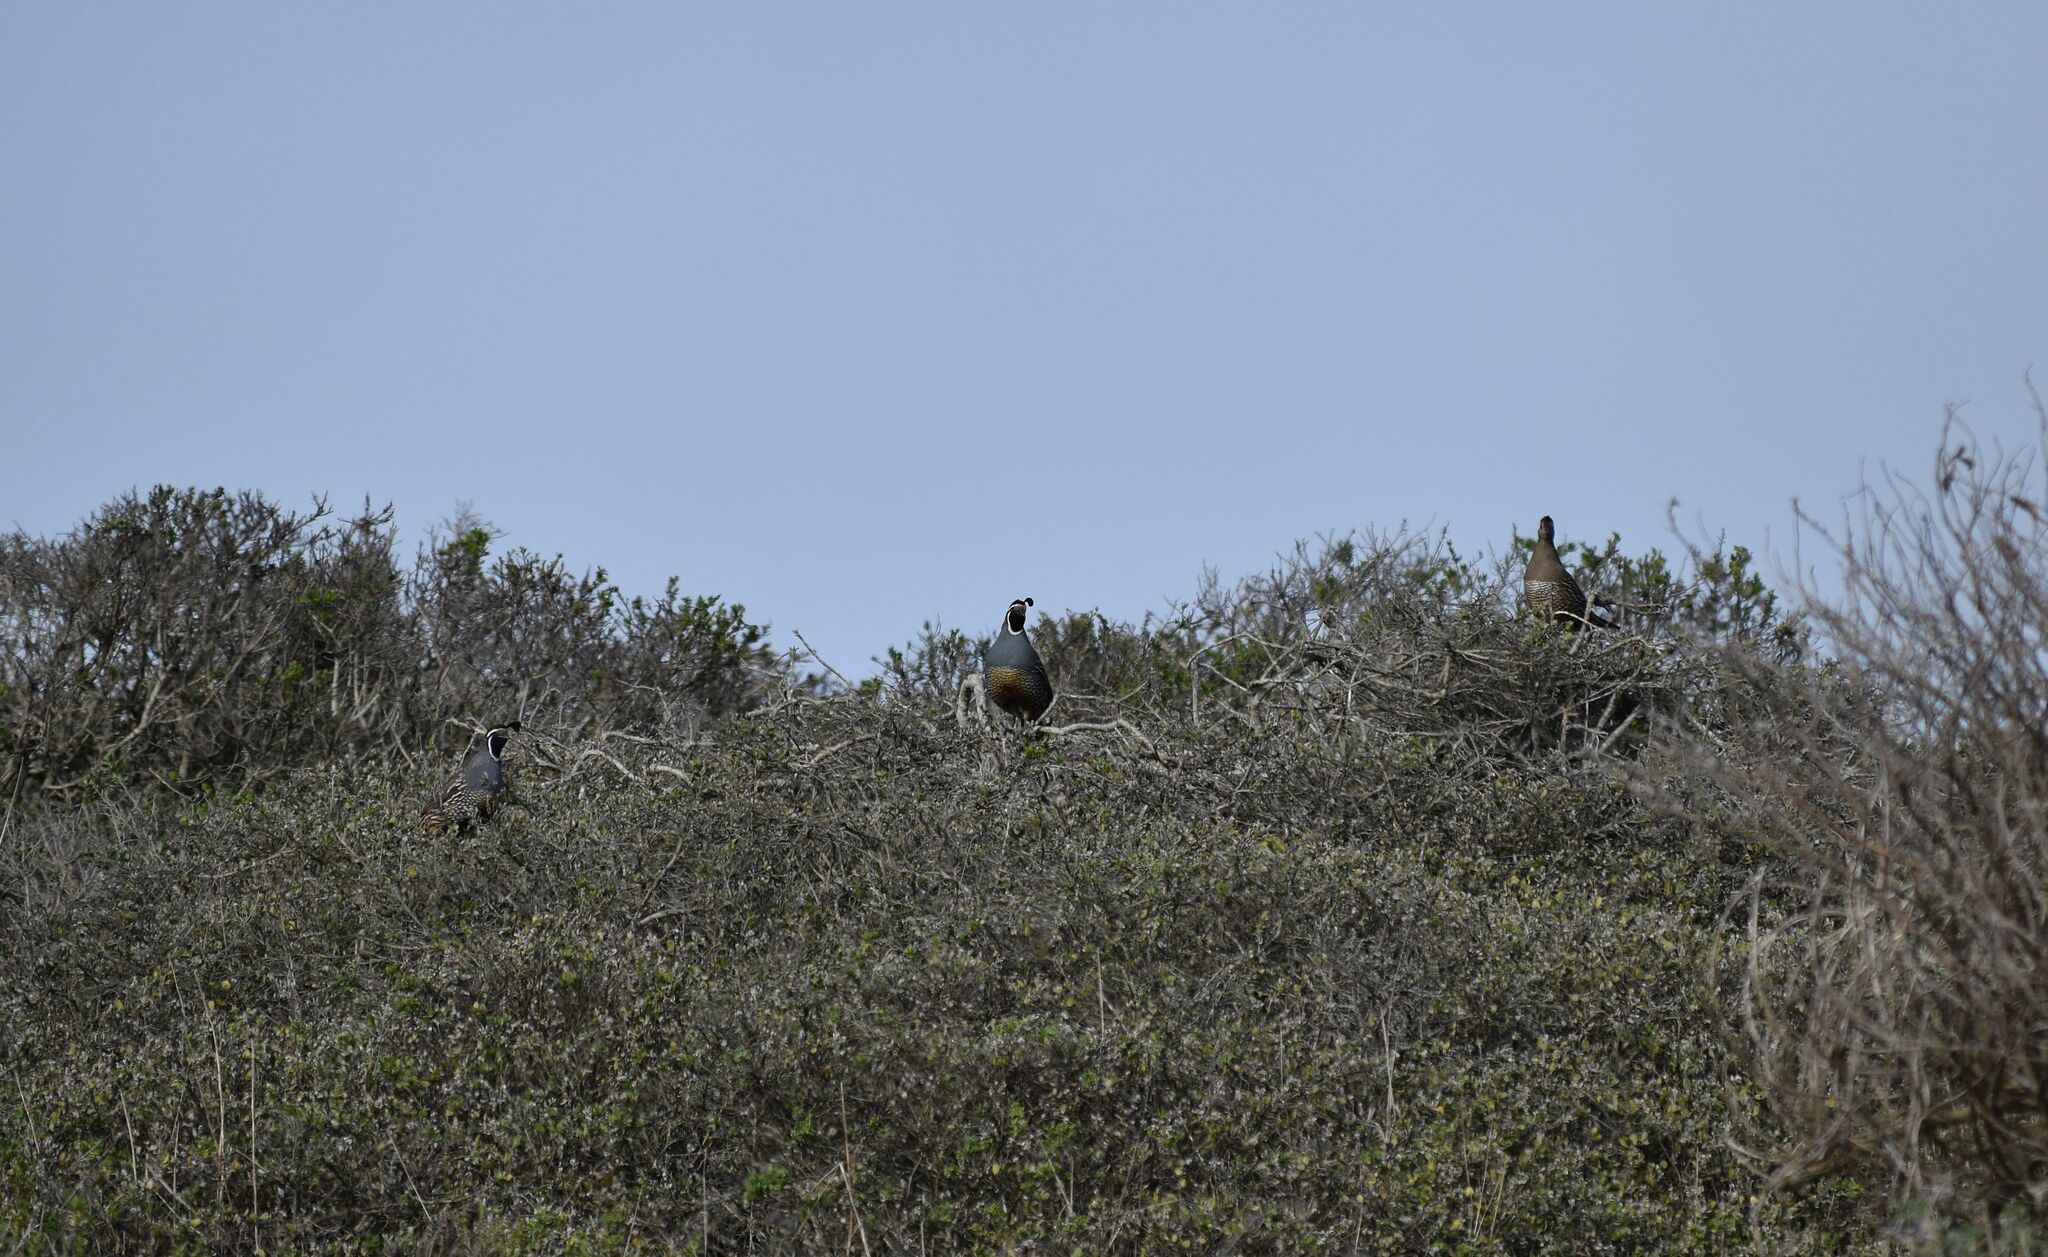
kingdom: Animalia
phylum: Chordata
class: Aves
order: Galliformes
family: Odontophoridae
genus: Callipepla
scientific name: Callipepla californica
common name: California quail
